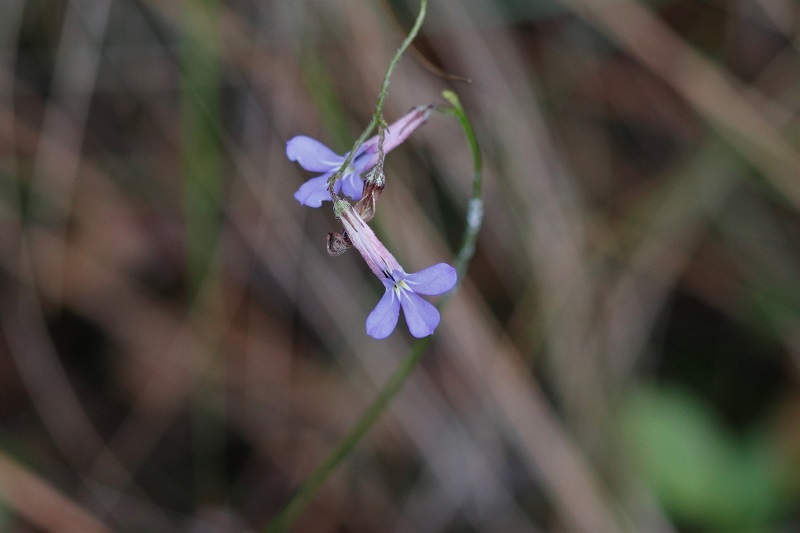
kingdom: Plantae
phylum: Tracheophyta
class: Magnoliopsida
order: Asterales
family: Campanulaceae
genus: Lobelia
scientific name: Lobelia neglecta
